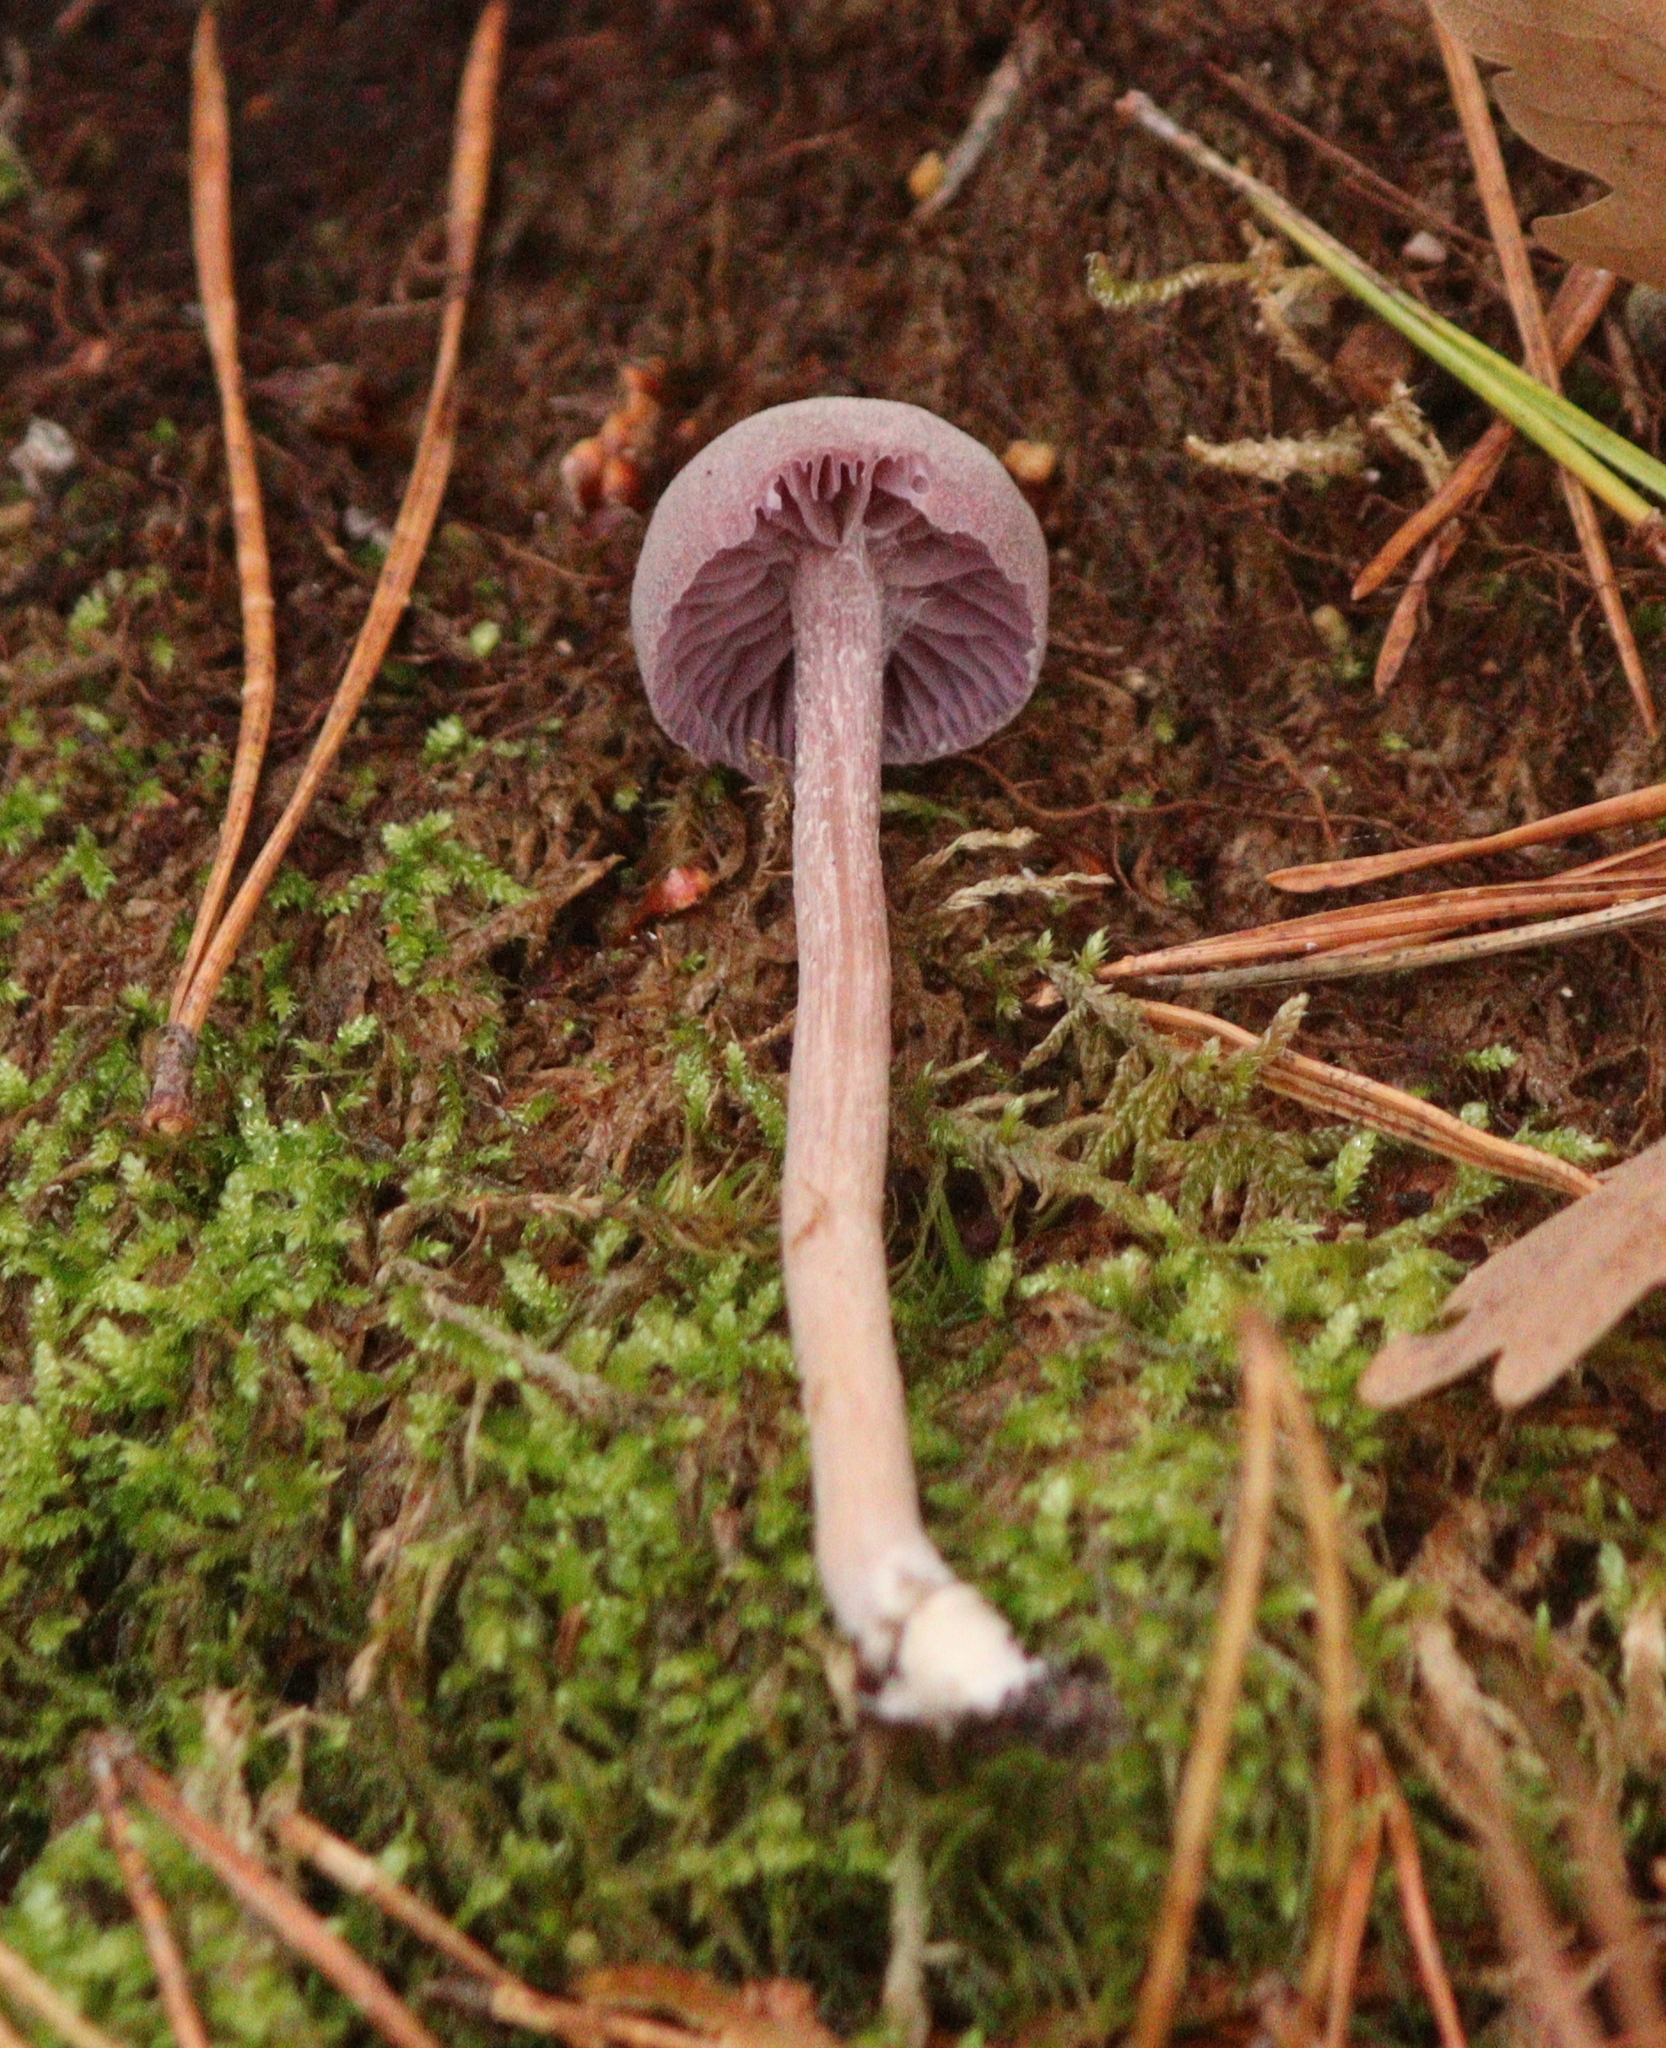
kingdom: Fungi
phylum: Basidiomycota
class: Agaricomycetes
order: Agaricales
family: Hydnangiaceae
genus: Laccaria
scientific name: Laccaria amethystina
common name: Amethyst deceiver
